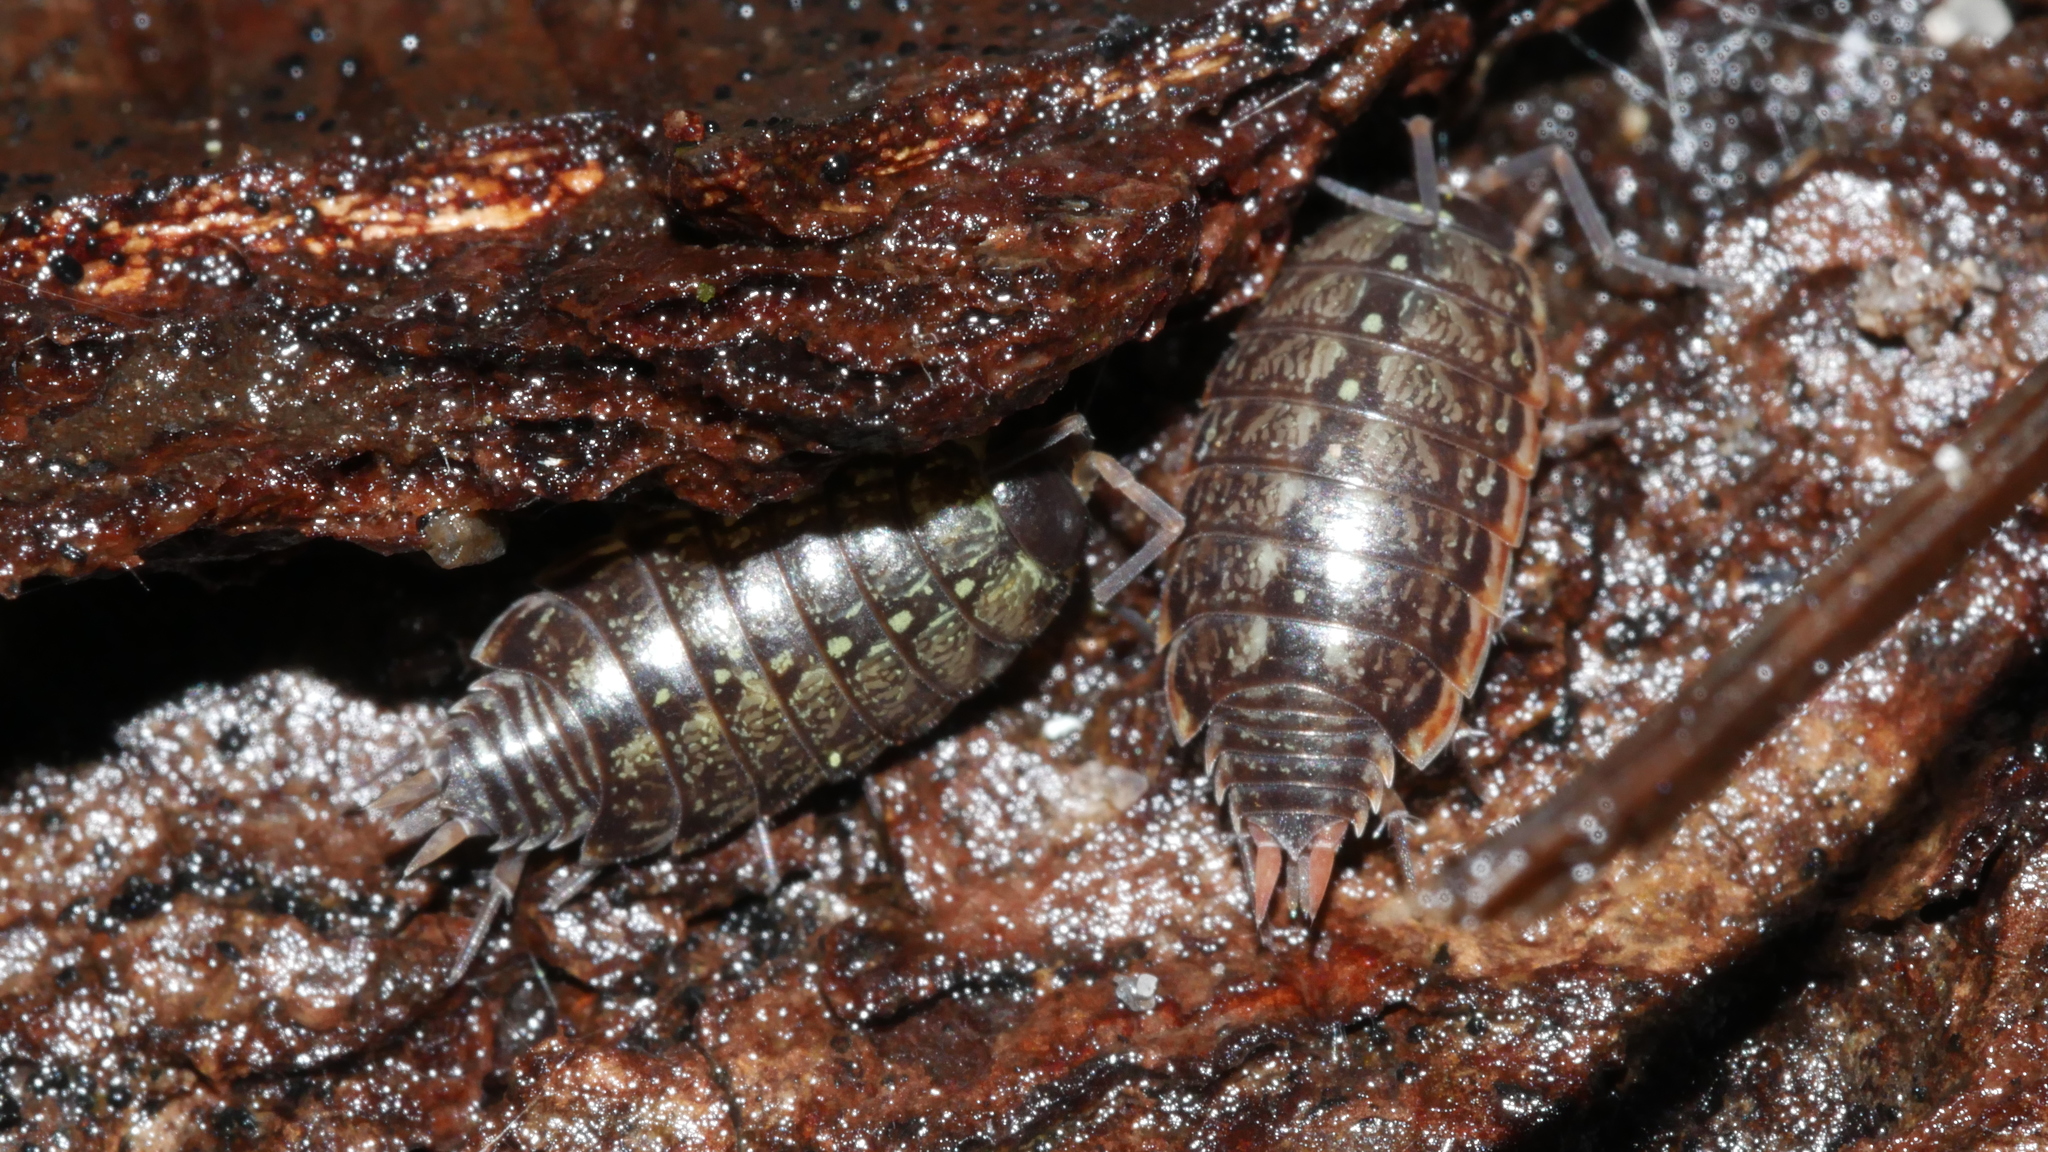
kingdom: Animalia
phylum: Arthropoda
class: Malacostraca
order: Isopoda
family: Philosciidae
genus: Philoscia
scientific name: Philoscia muscorum
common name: Common striped woodlouse
